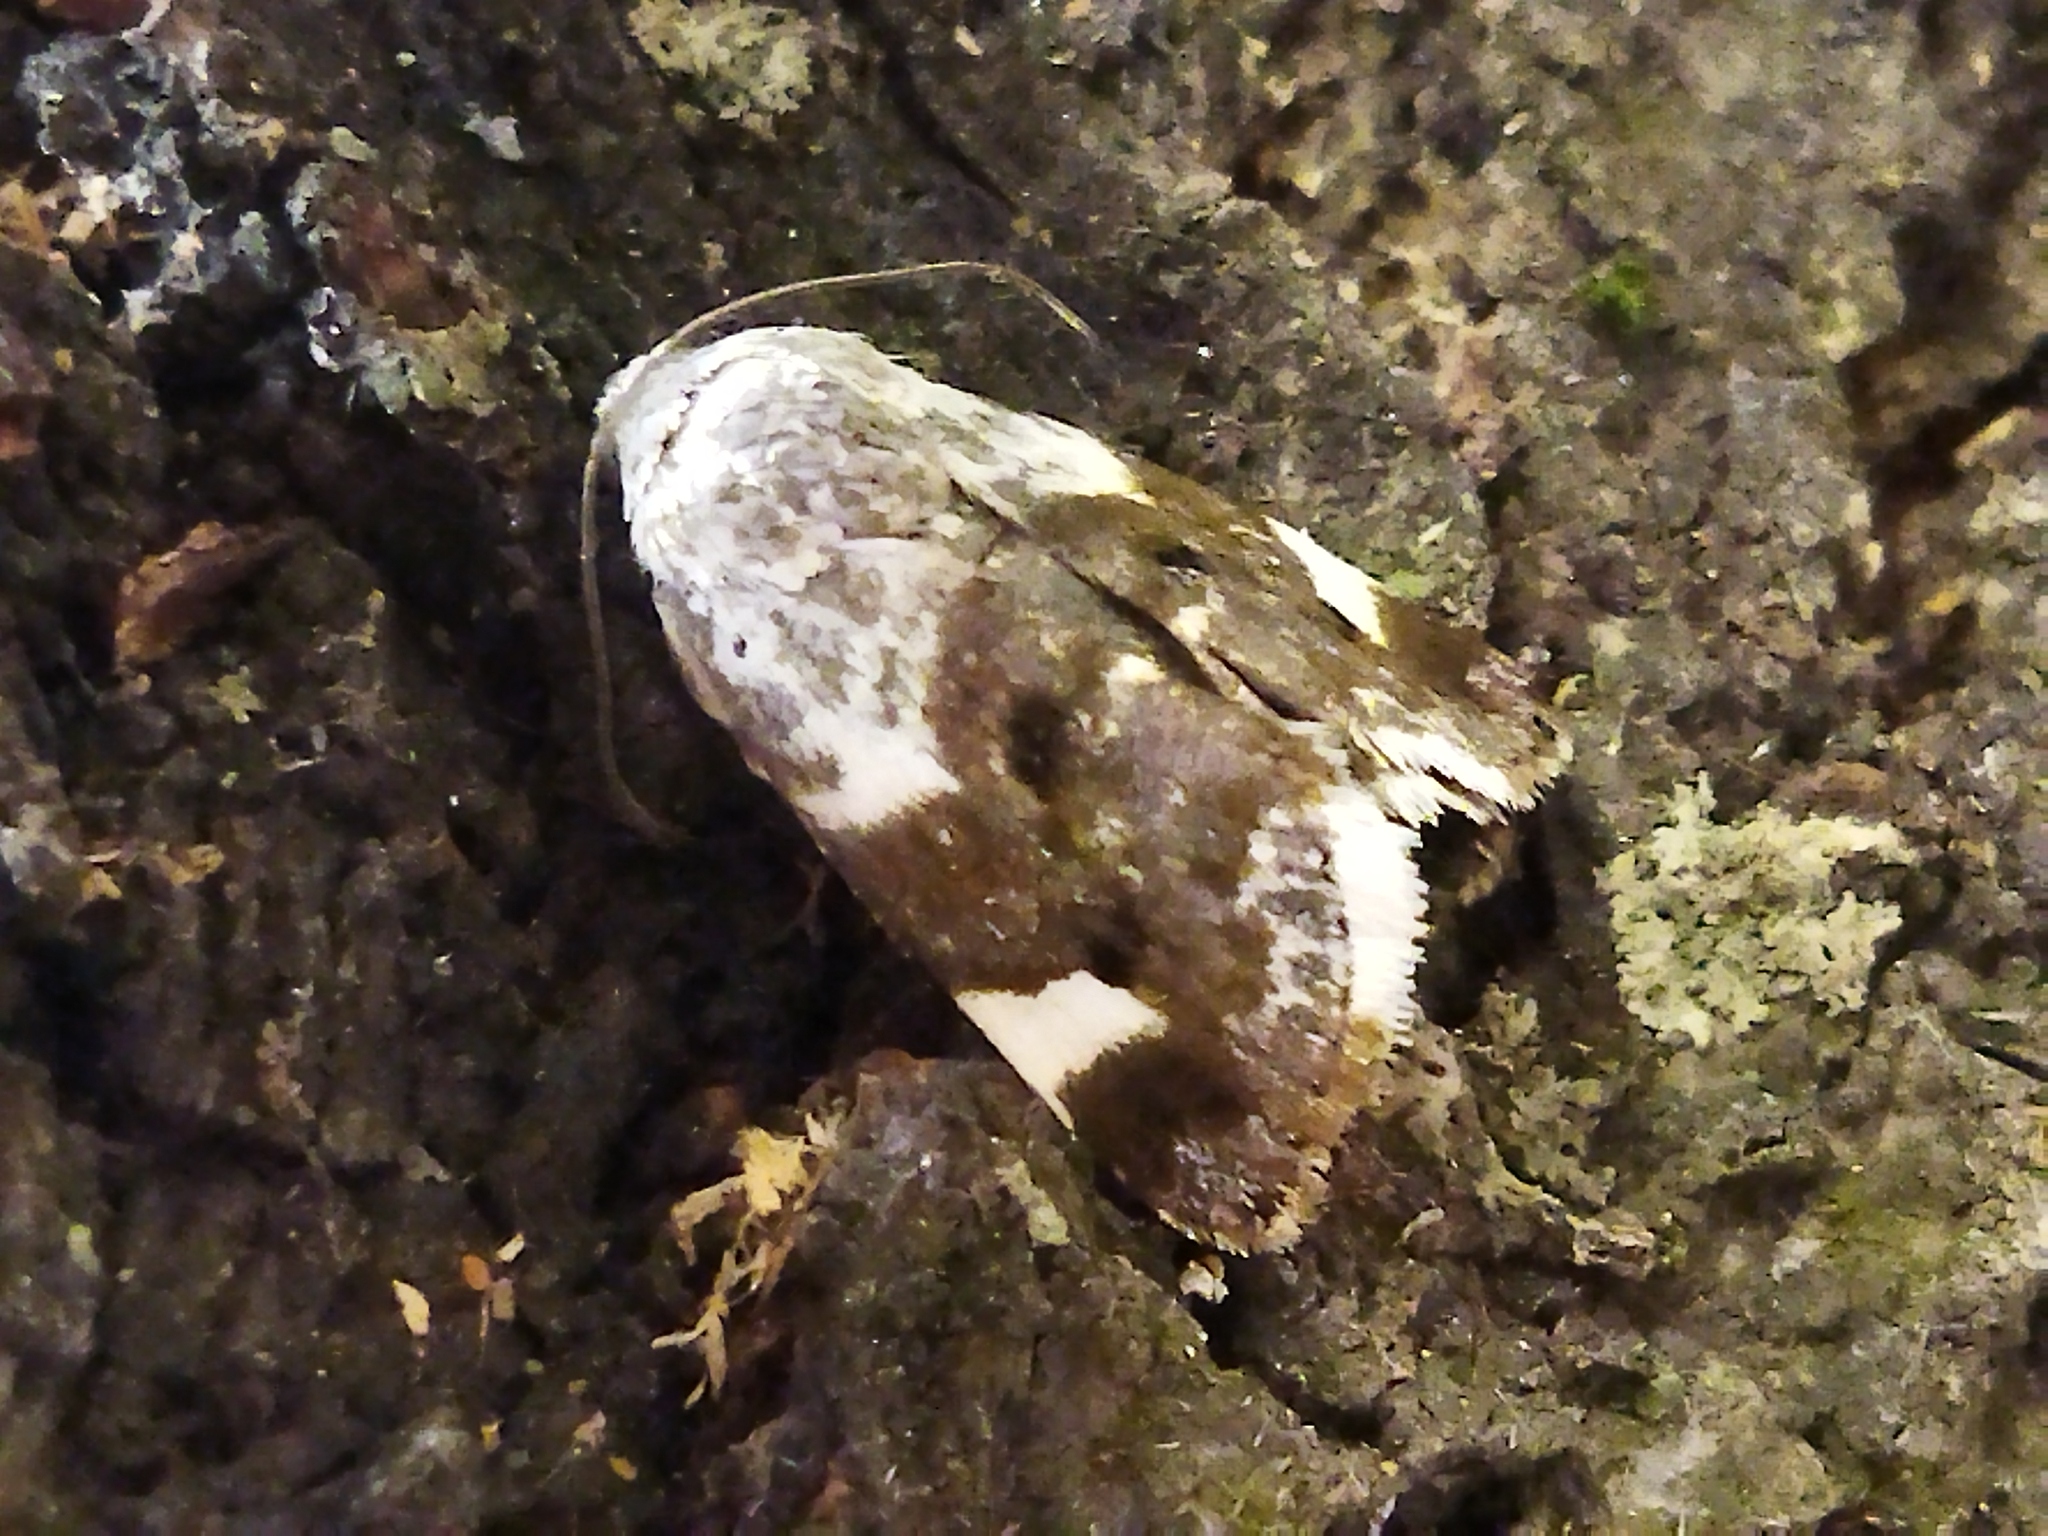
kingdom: Animalia
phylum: Arthropoda
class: Insecta
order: Lepidoptera
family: Noctuidae
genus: Acontia
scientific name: Acontia lucida
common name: Pale shoulder
